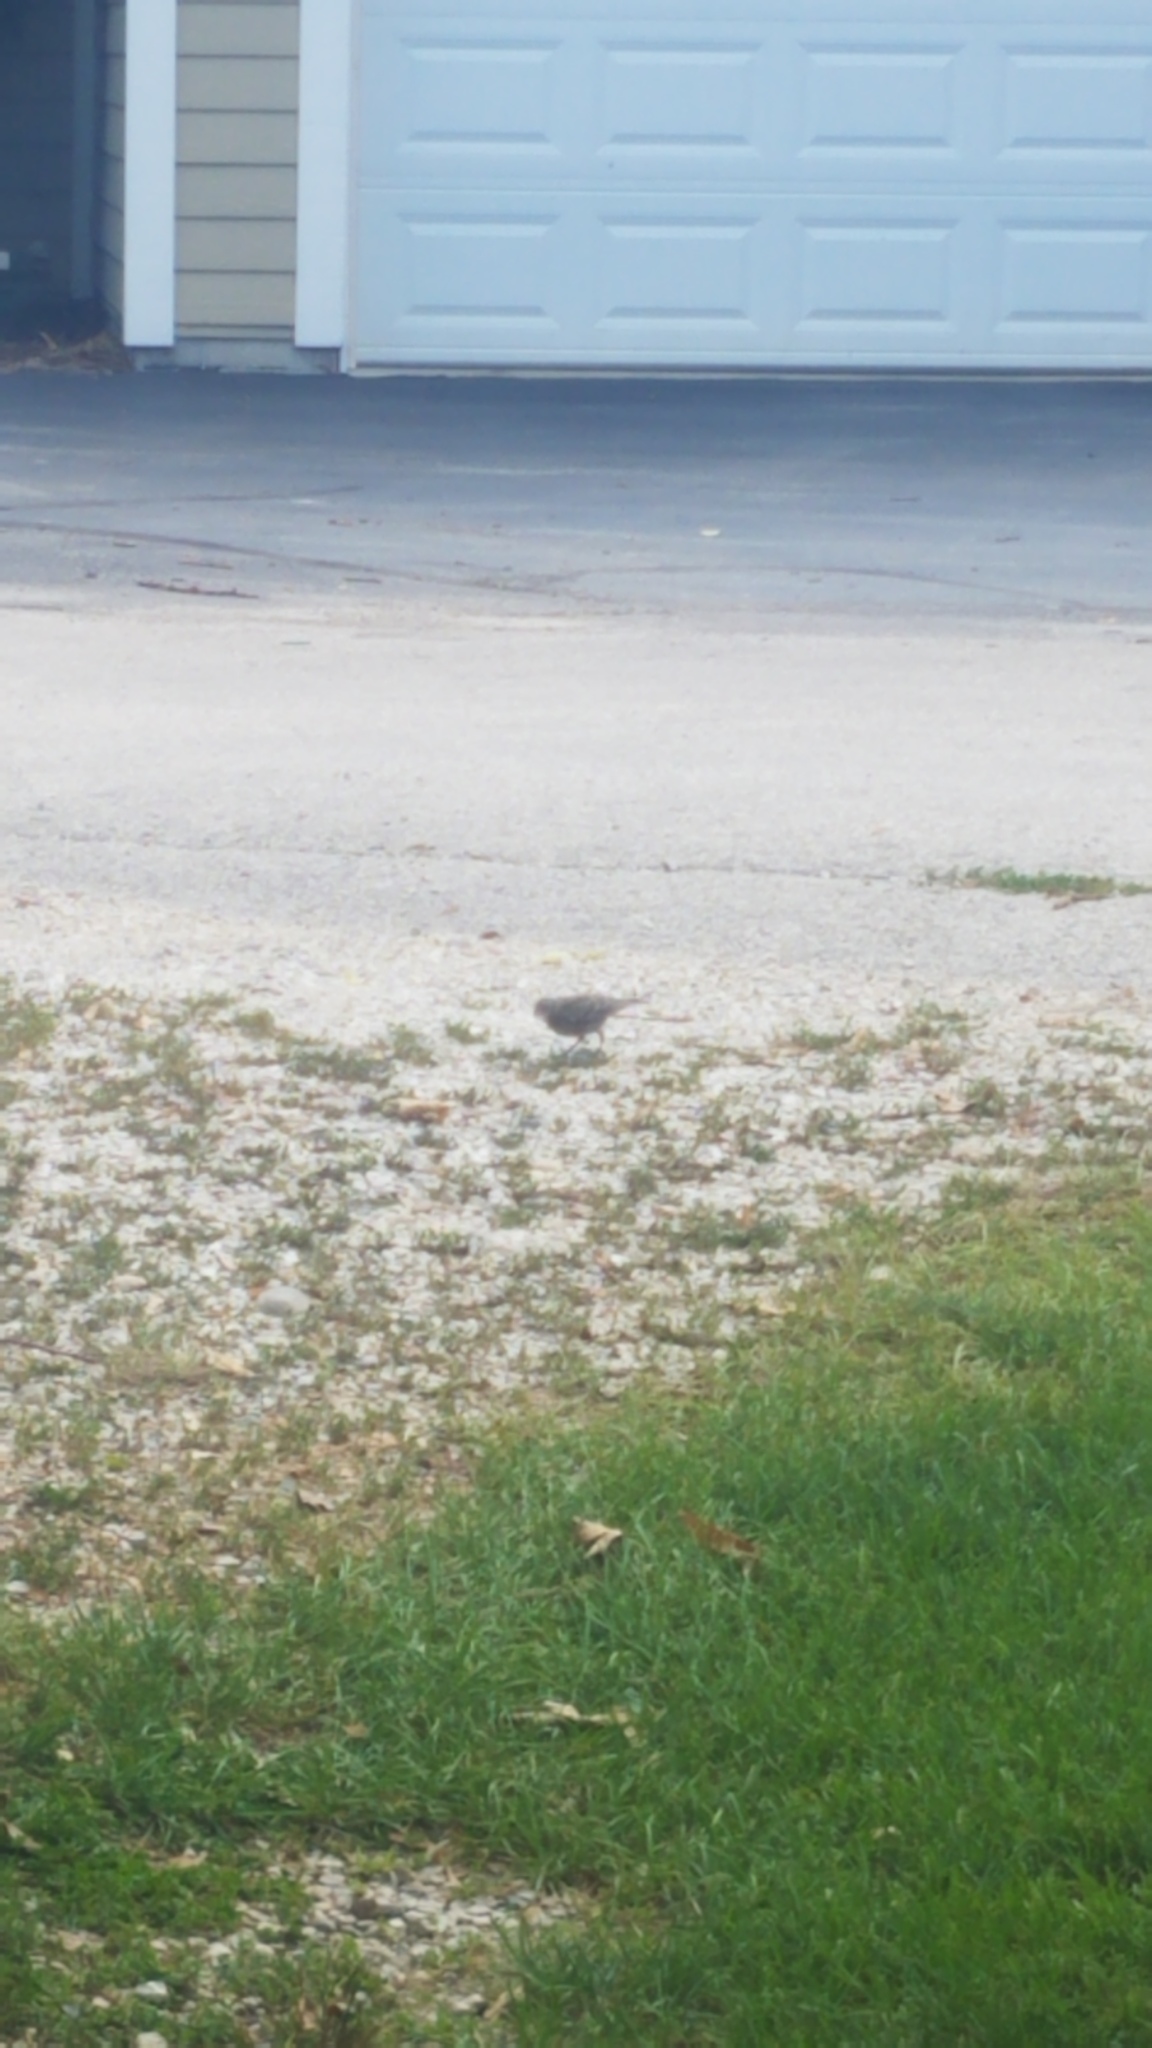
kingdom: Animalia
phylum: Chordata
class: Aves
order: Passeriformes
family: Icteridae
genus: Molothrus
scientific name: Molothrus ater
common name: Brown-headed cowbird
